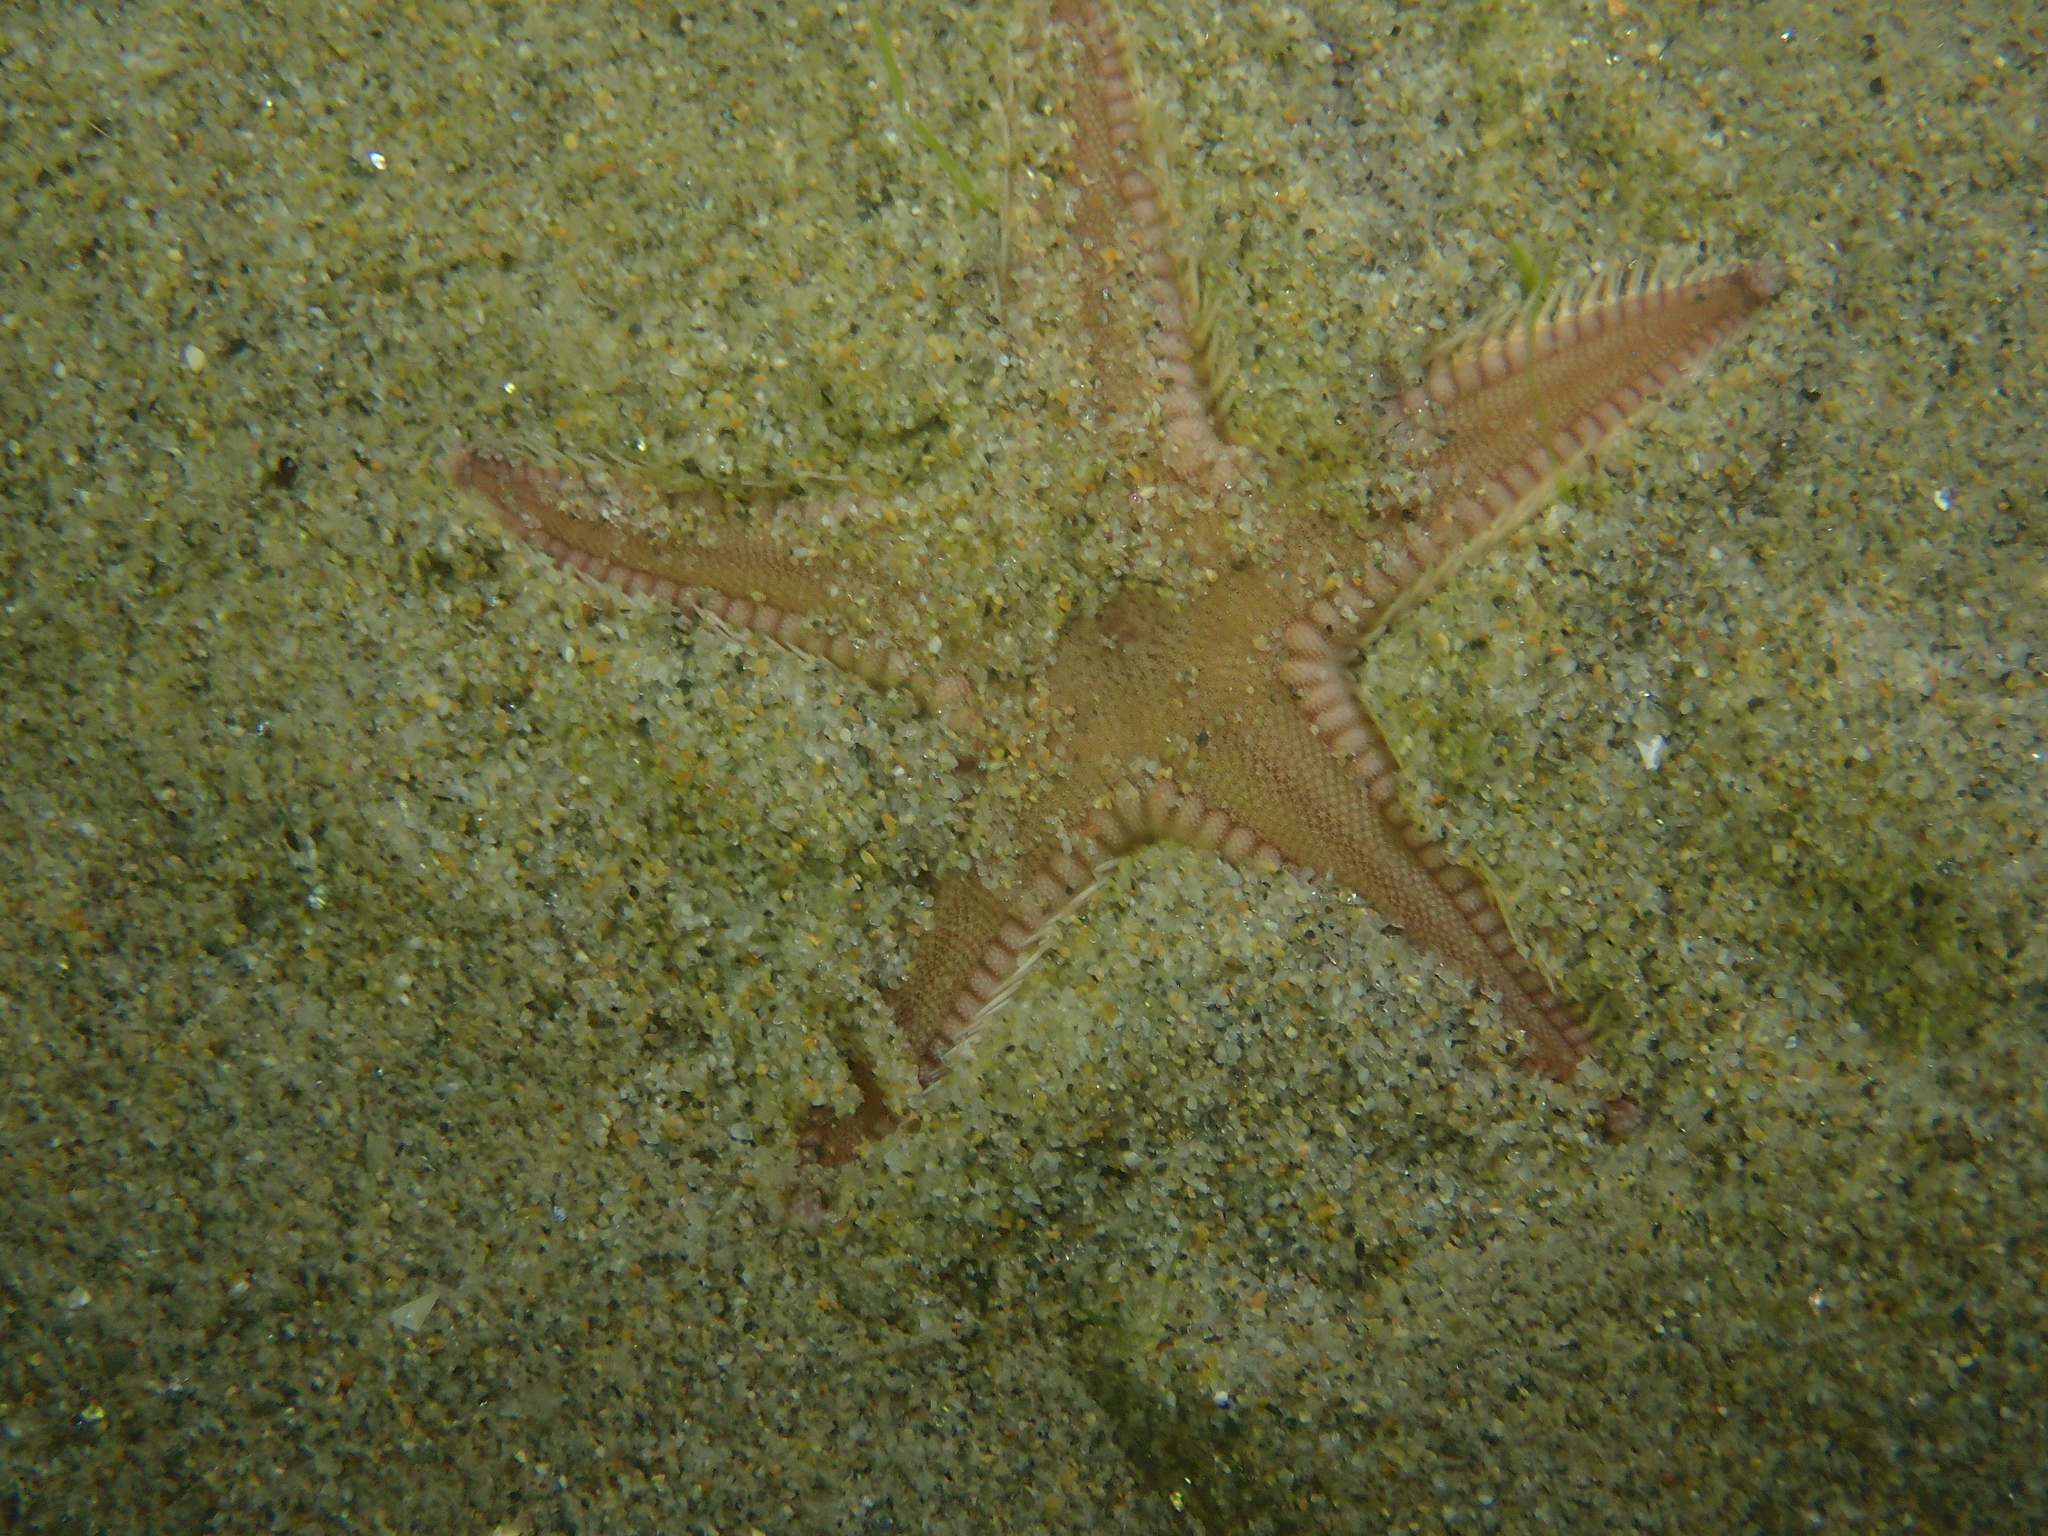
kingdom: Animalia
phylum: Echinodermata
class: Asteroidea
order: Paxillosida
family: Astropectinidae
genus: Astropecten
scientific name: Astropecten irregularis
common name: Sand star
